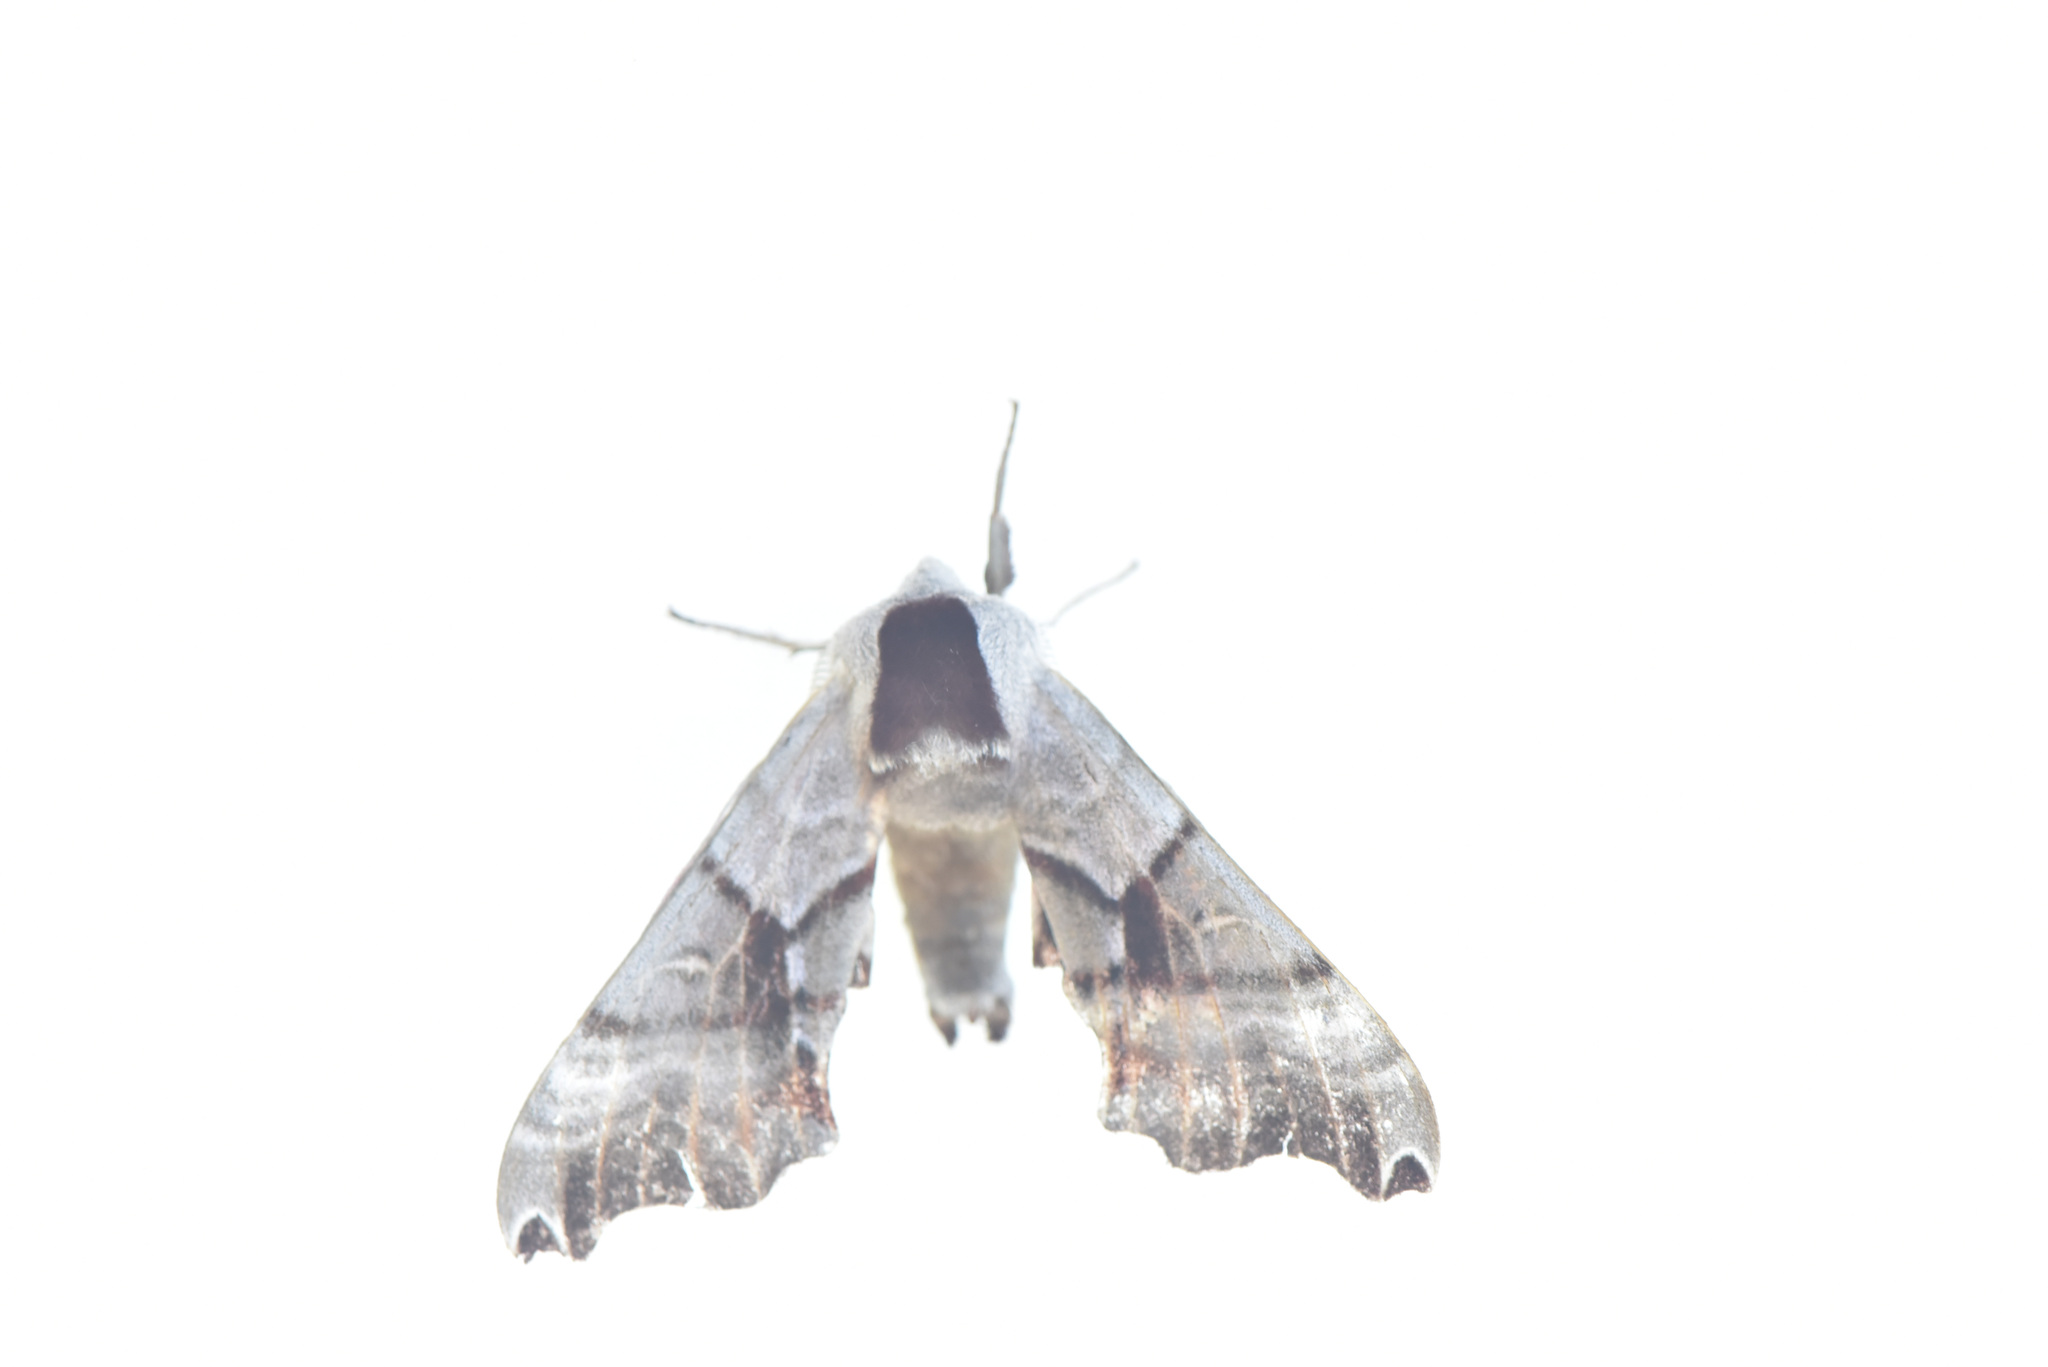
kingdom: Animalia
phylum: Arthropoda
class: Insecta
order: Lepidoptera
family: Sphingidae
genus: Smerinthus
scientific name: Smerinthus jamaicensis
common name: Twin spotted sphinx
